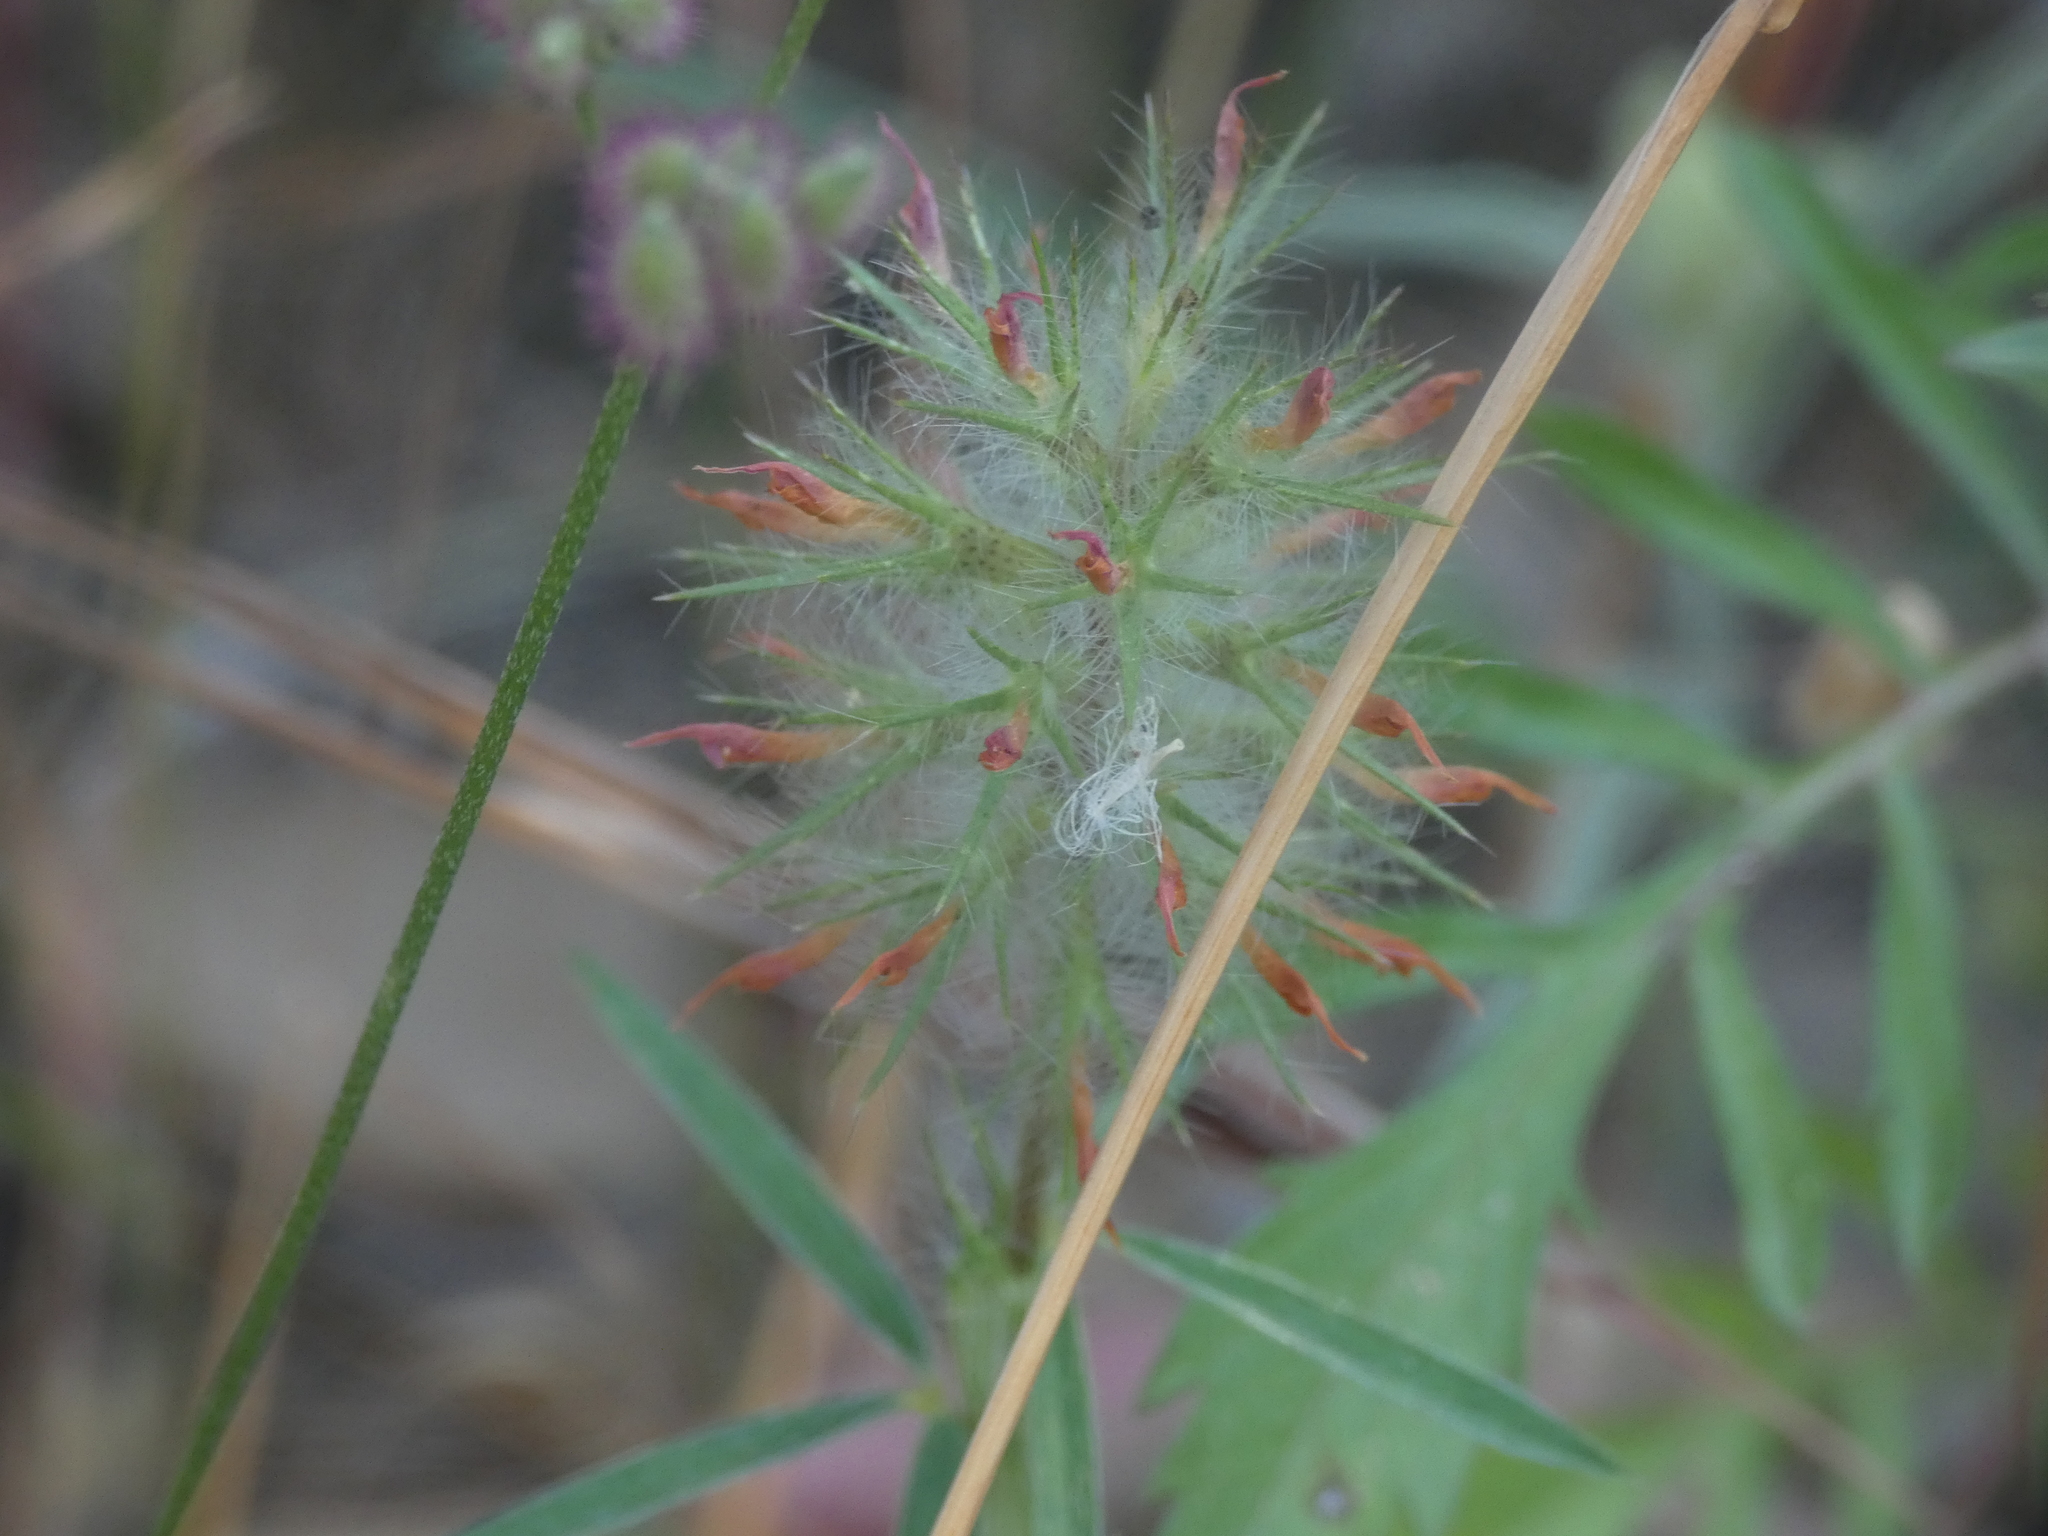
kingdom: Plantae
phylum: Tracheophyta
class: Magnoliopsida
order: Fabales
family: Fabaceae
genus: Trifolium
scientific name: Trifolium angustifolium
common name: Narrow clover
